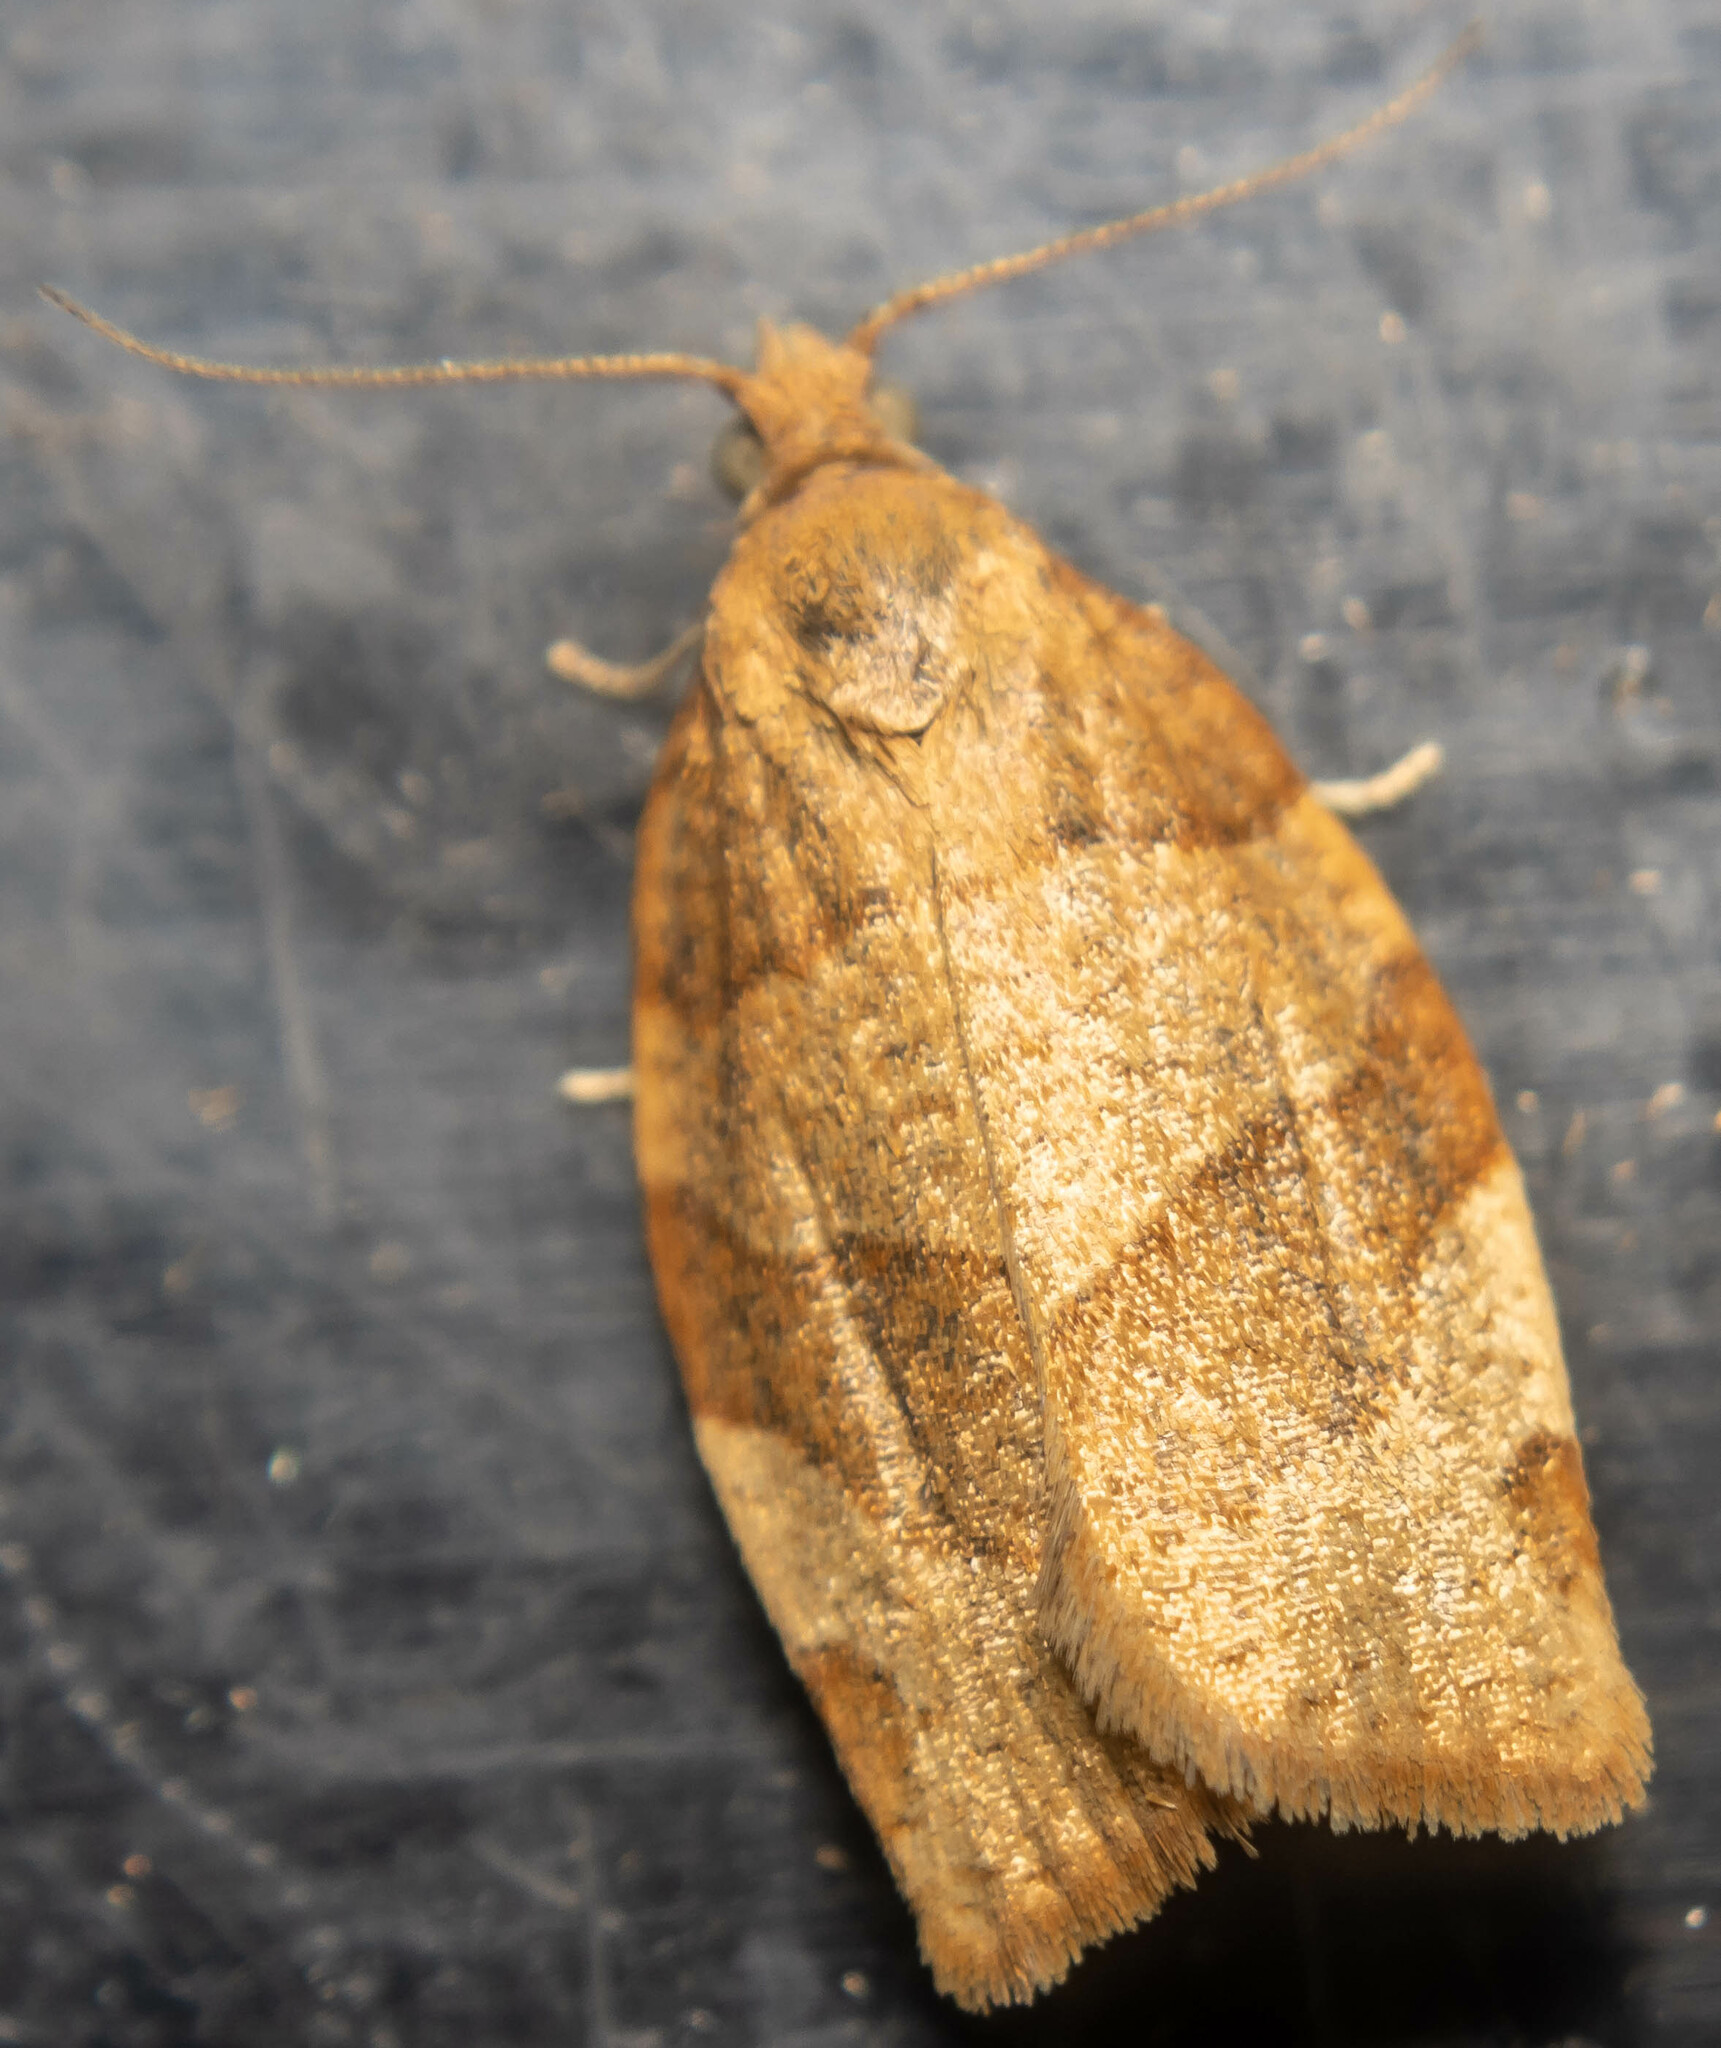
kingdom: Animalia
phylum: Arthropoda
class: Insecta
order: Lepidoptera
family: Tortricidae
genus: Pandemis
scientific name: Pandemis cerasana
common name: Barred fruit-tree tortrix
